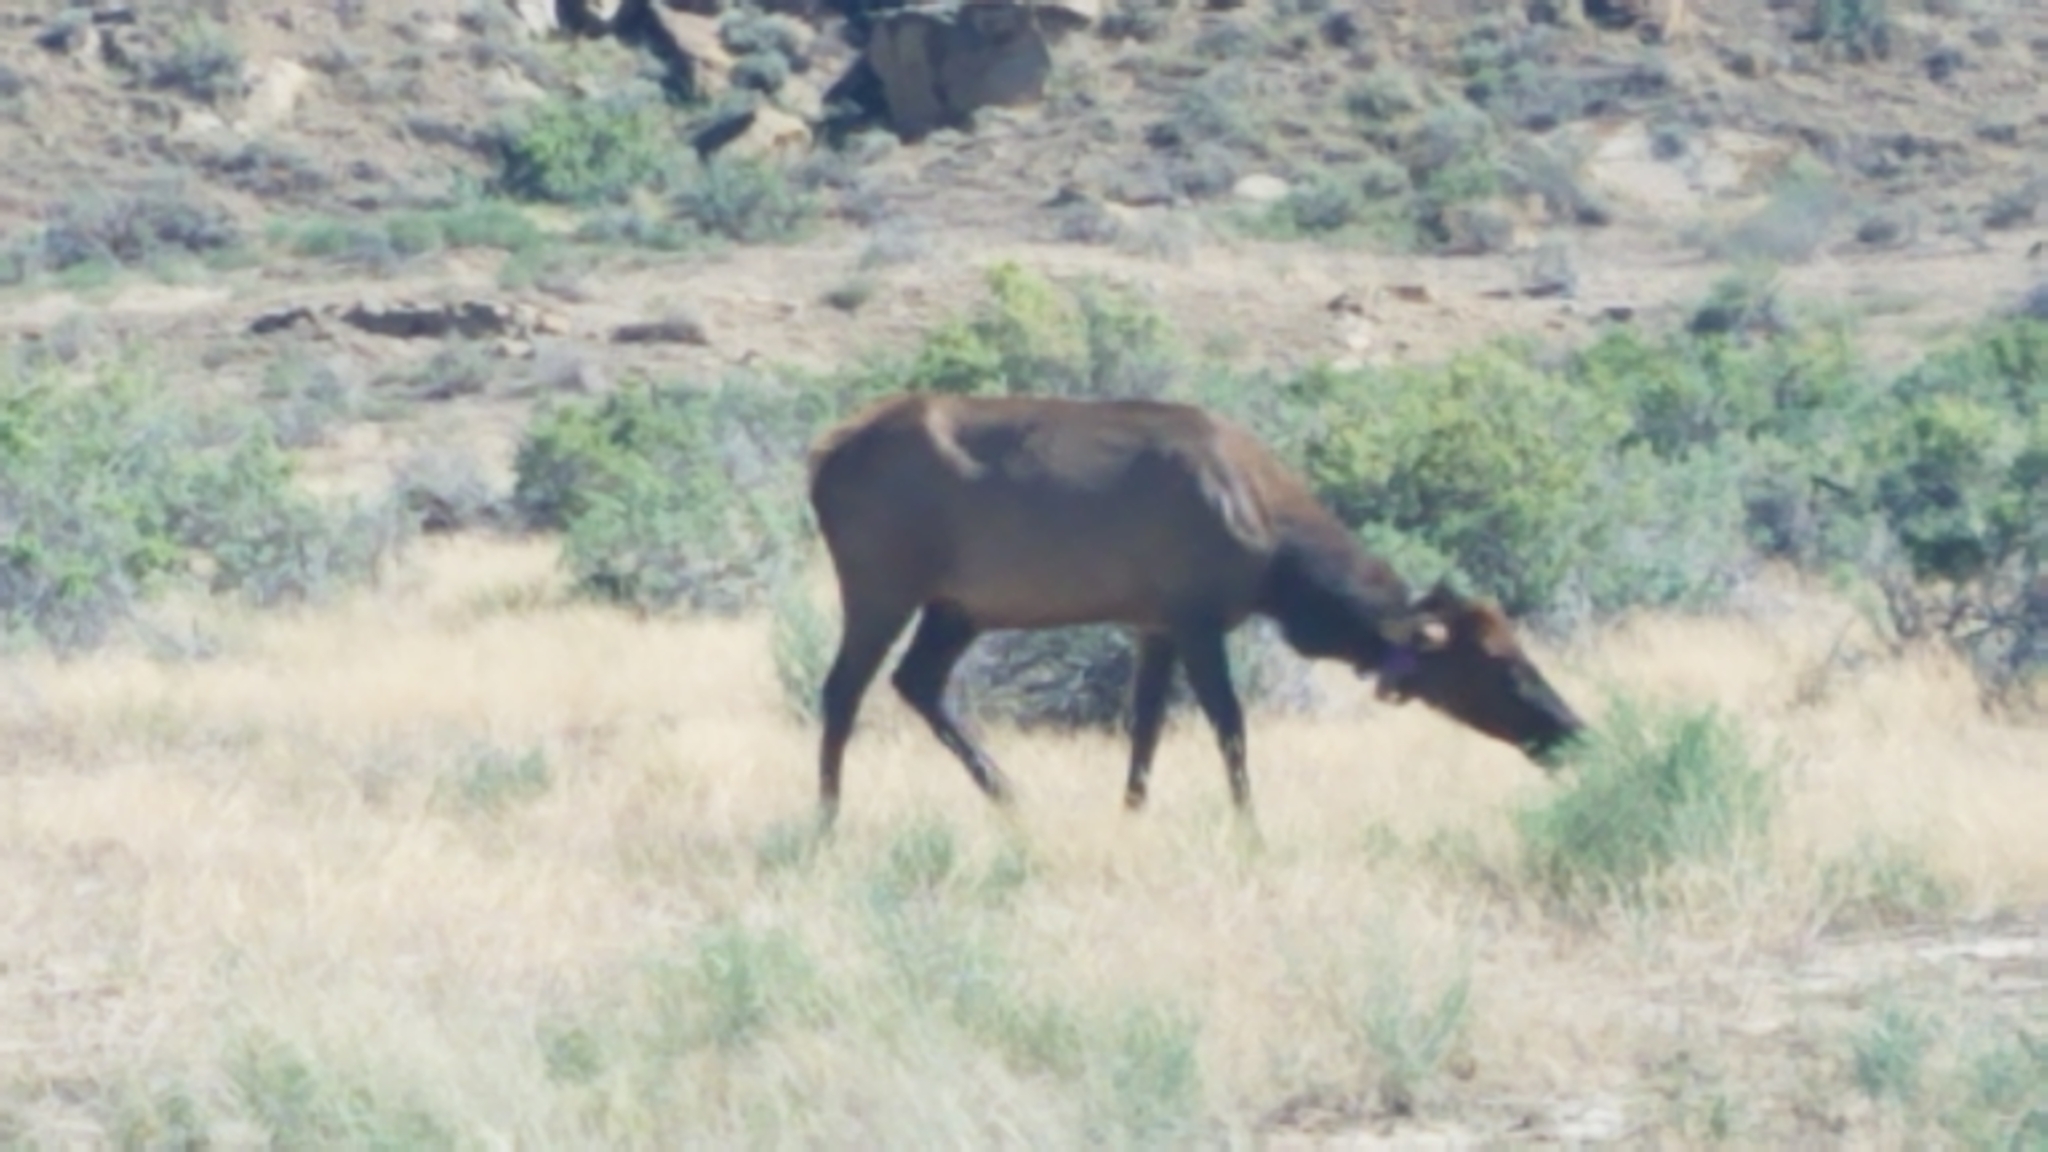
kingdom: Animalia
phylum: Chordata
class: Mammalia
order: Artiodactyla
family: Cervidae
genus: Cervus
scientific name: Cervus elaphus
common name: Red deer
